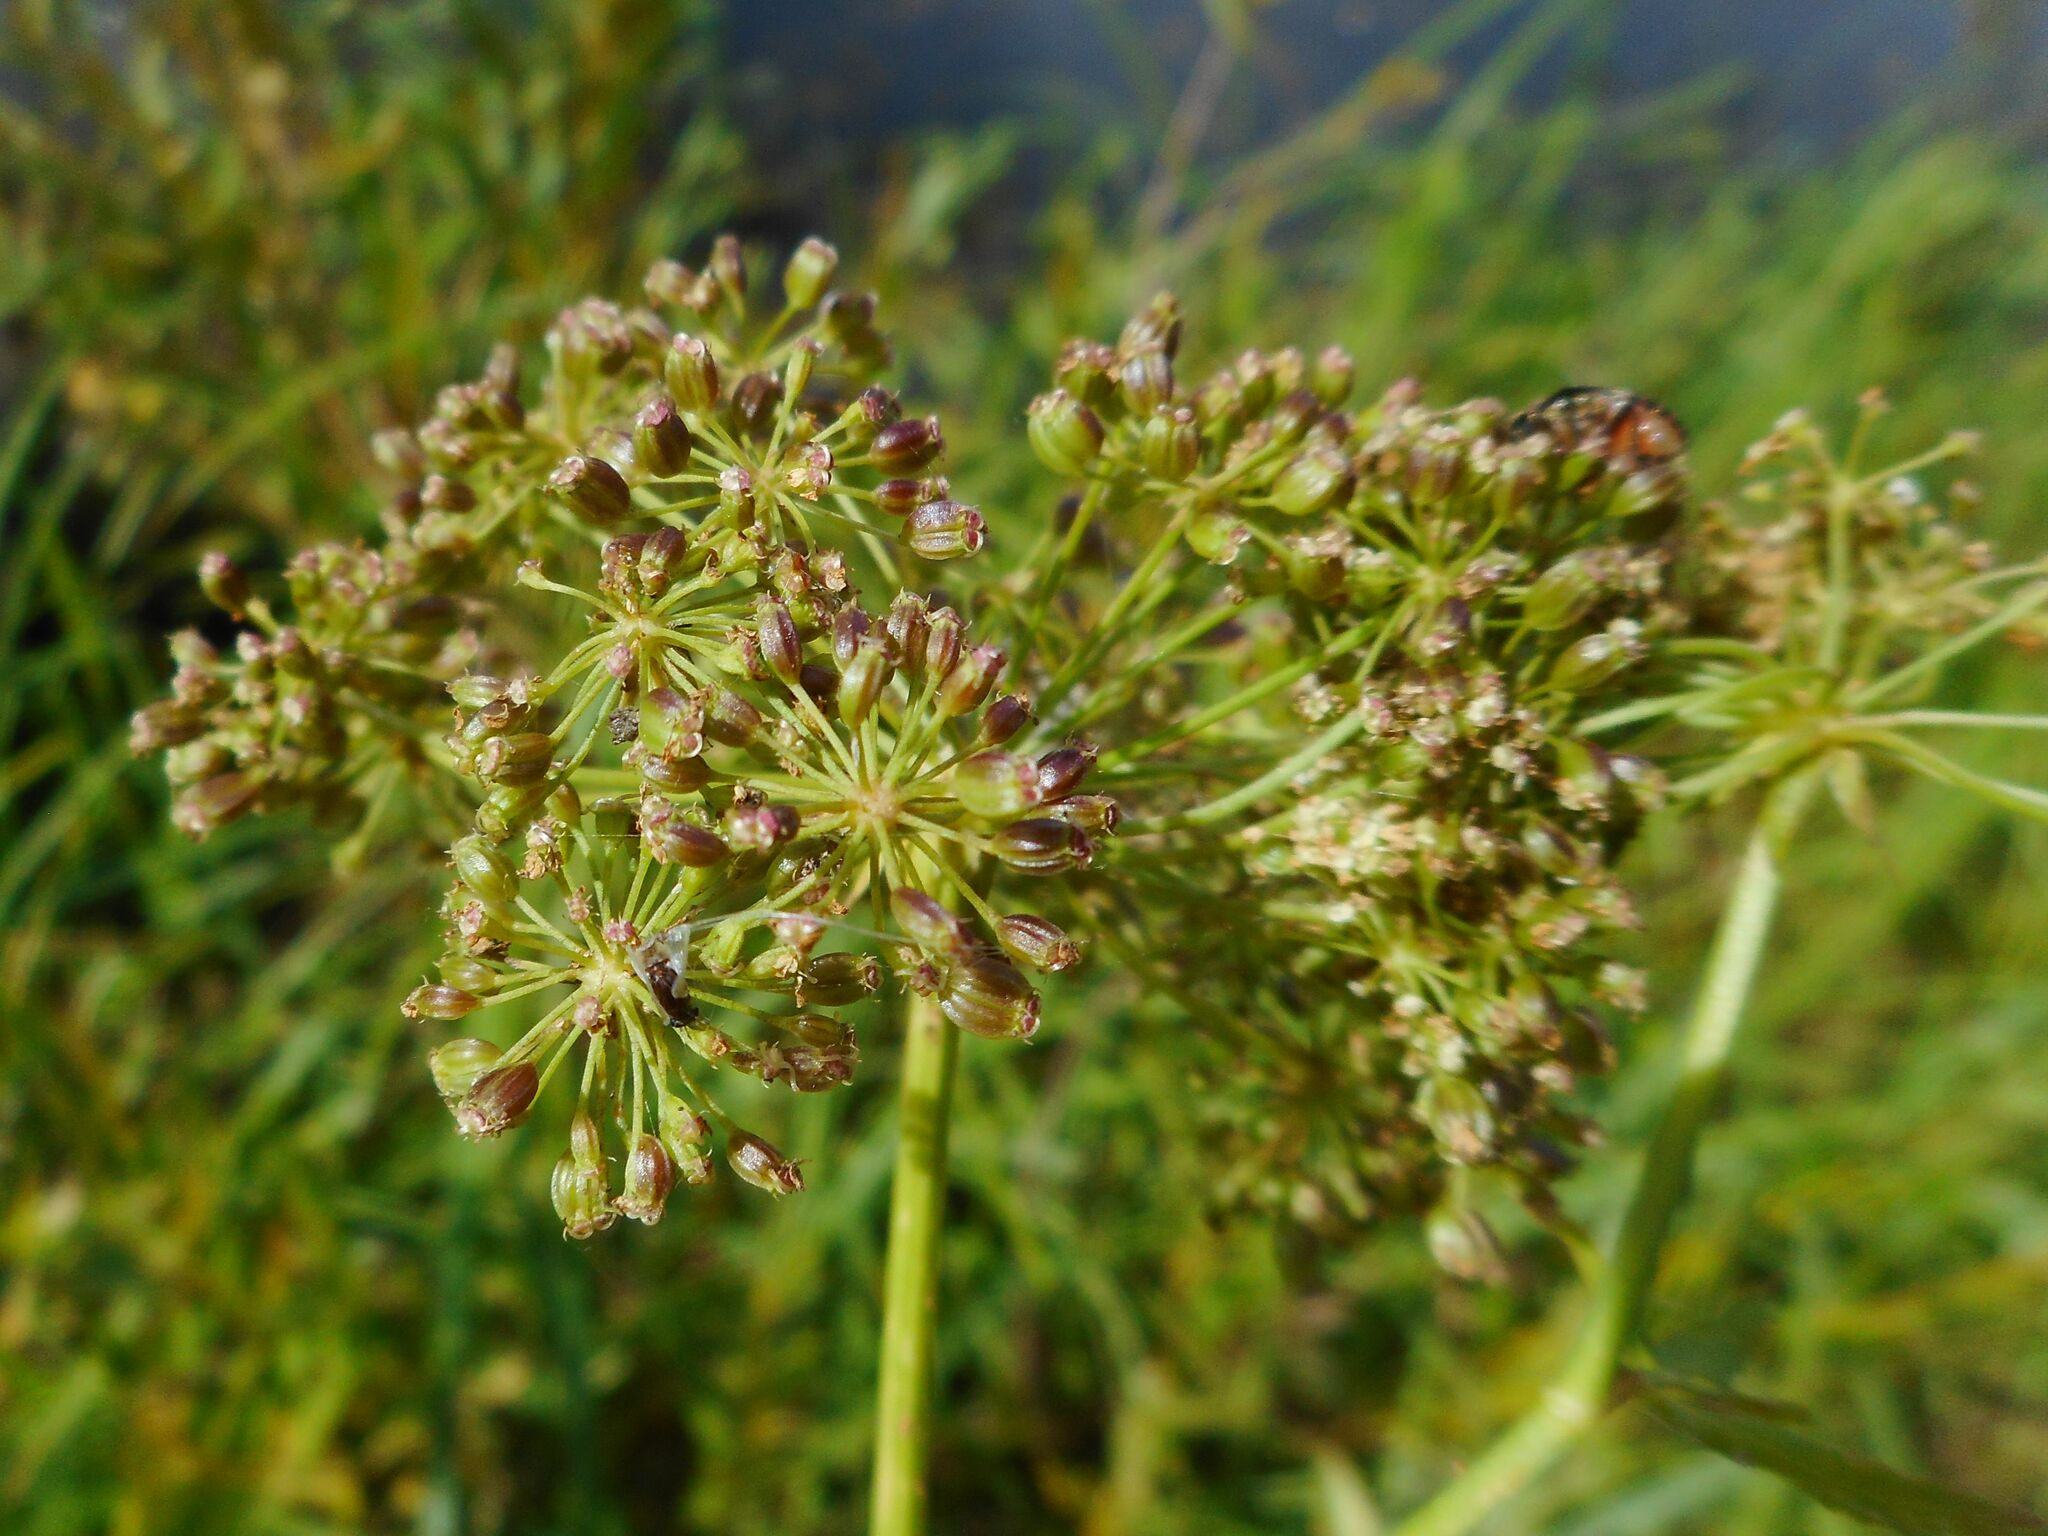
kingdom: Plantae
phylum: Tracheophyta
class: Magnoliopsida
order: Apiales
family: Apiaceae
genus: Sium
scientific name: Sium latifolium
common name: Greater water-parsnip
